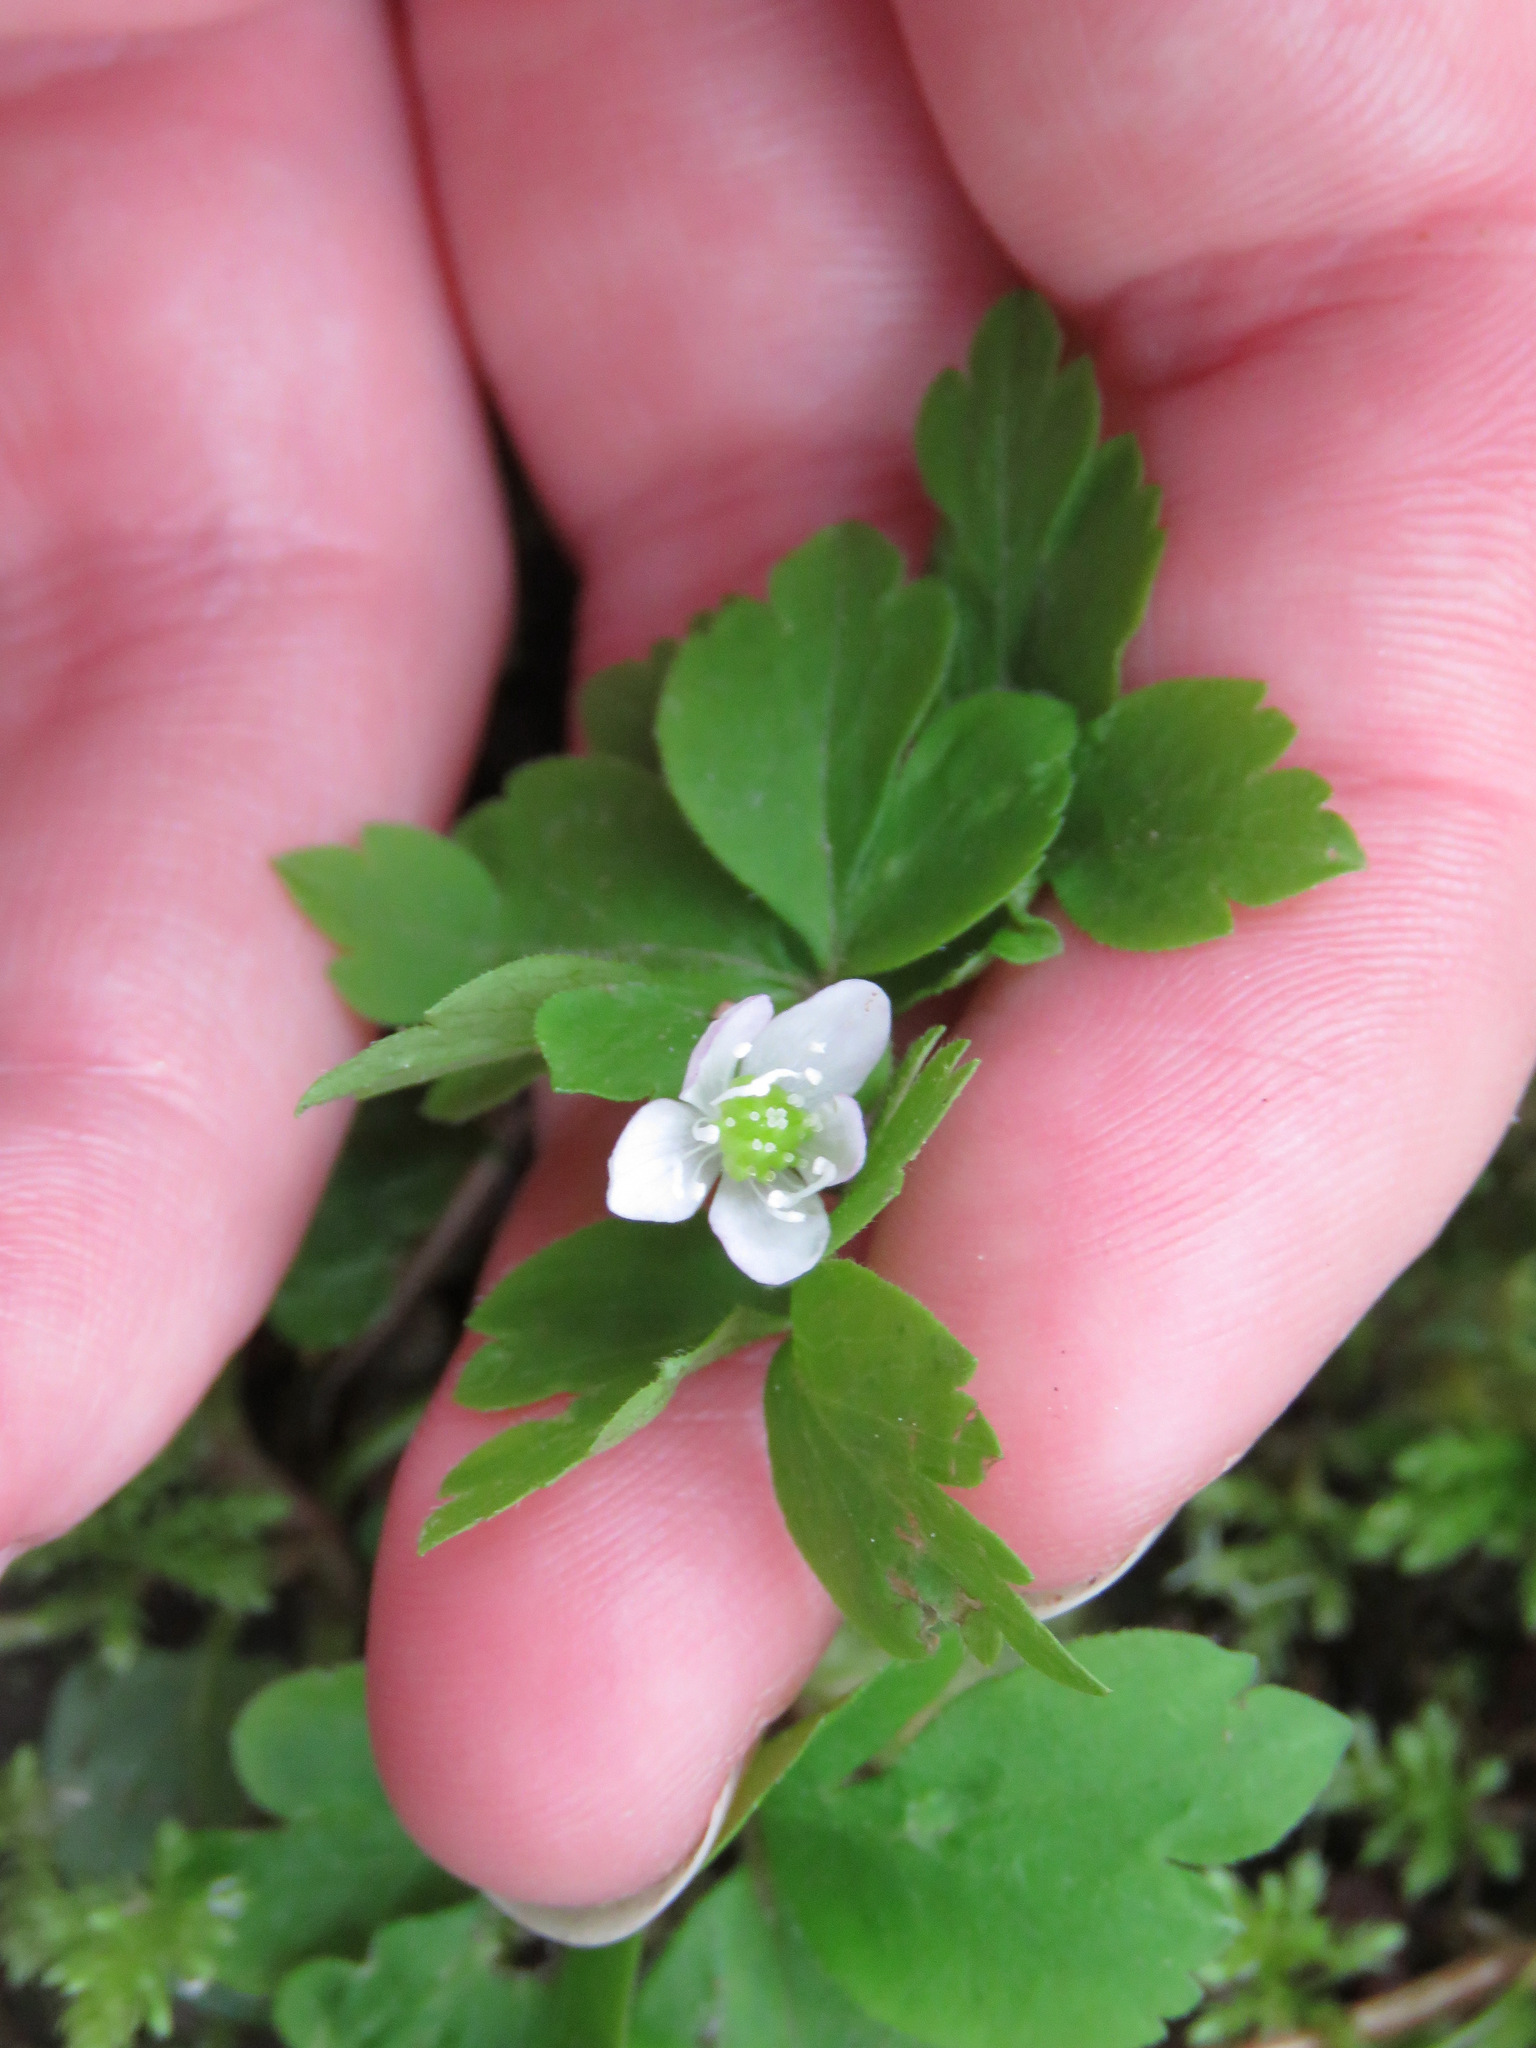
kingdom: Plantae
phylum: Tracheophyta
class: Magnoliopsida
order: Ranunculales
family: Ranunculaceae
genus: Anemone
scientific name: Anemone
